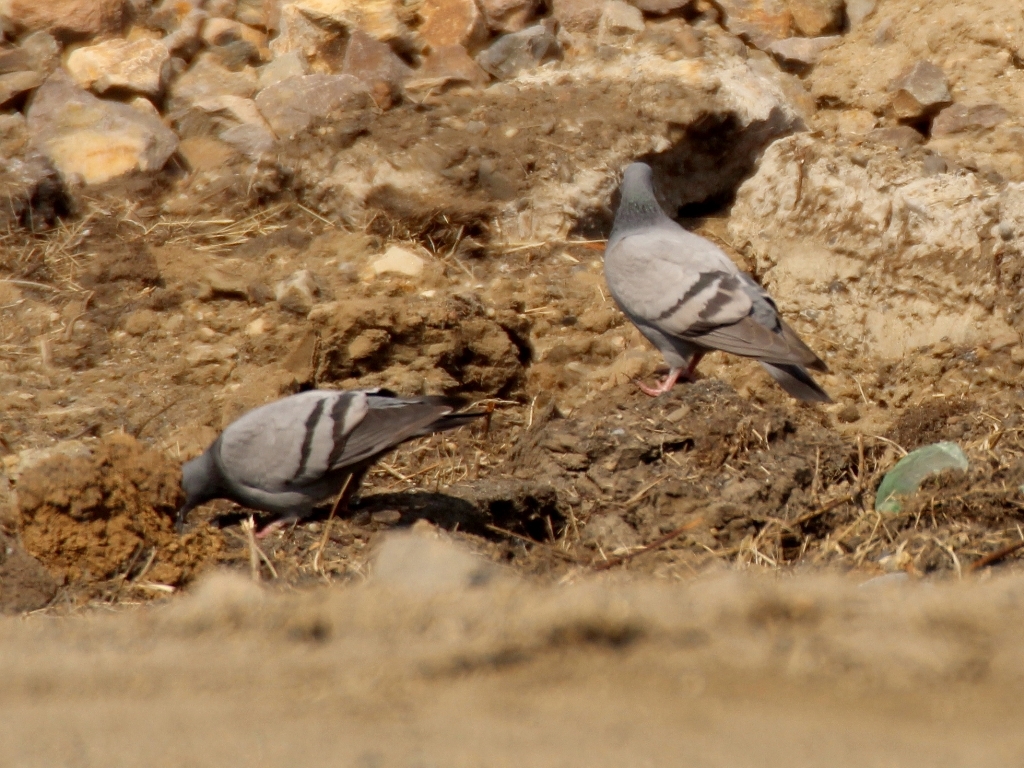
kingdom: Animalia
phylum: Chordata
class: Aves
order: Columbiformes
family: Columbidae
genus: Columba
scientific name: Columba livia
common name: Rock pigeon
